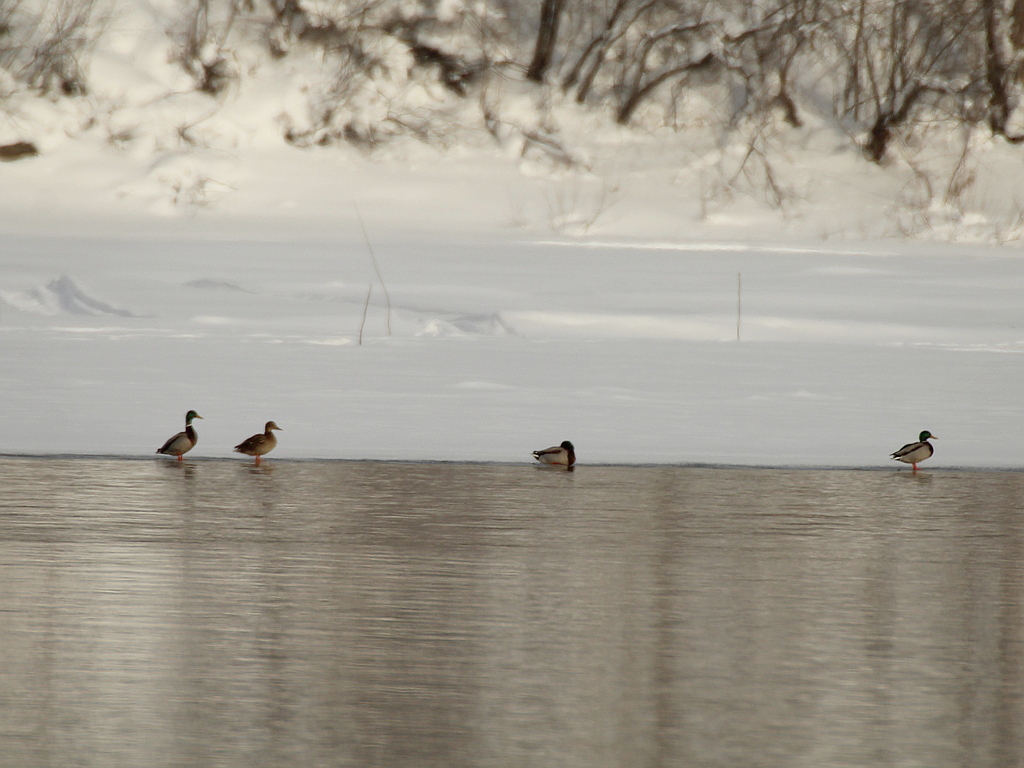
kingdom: Animalia
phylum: Chordata
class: Aves
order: Anseriformes
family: Anatidae
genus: Anas
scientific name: Anas platyrhynchos
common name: Mallard
